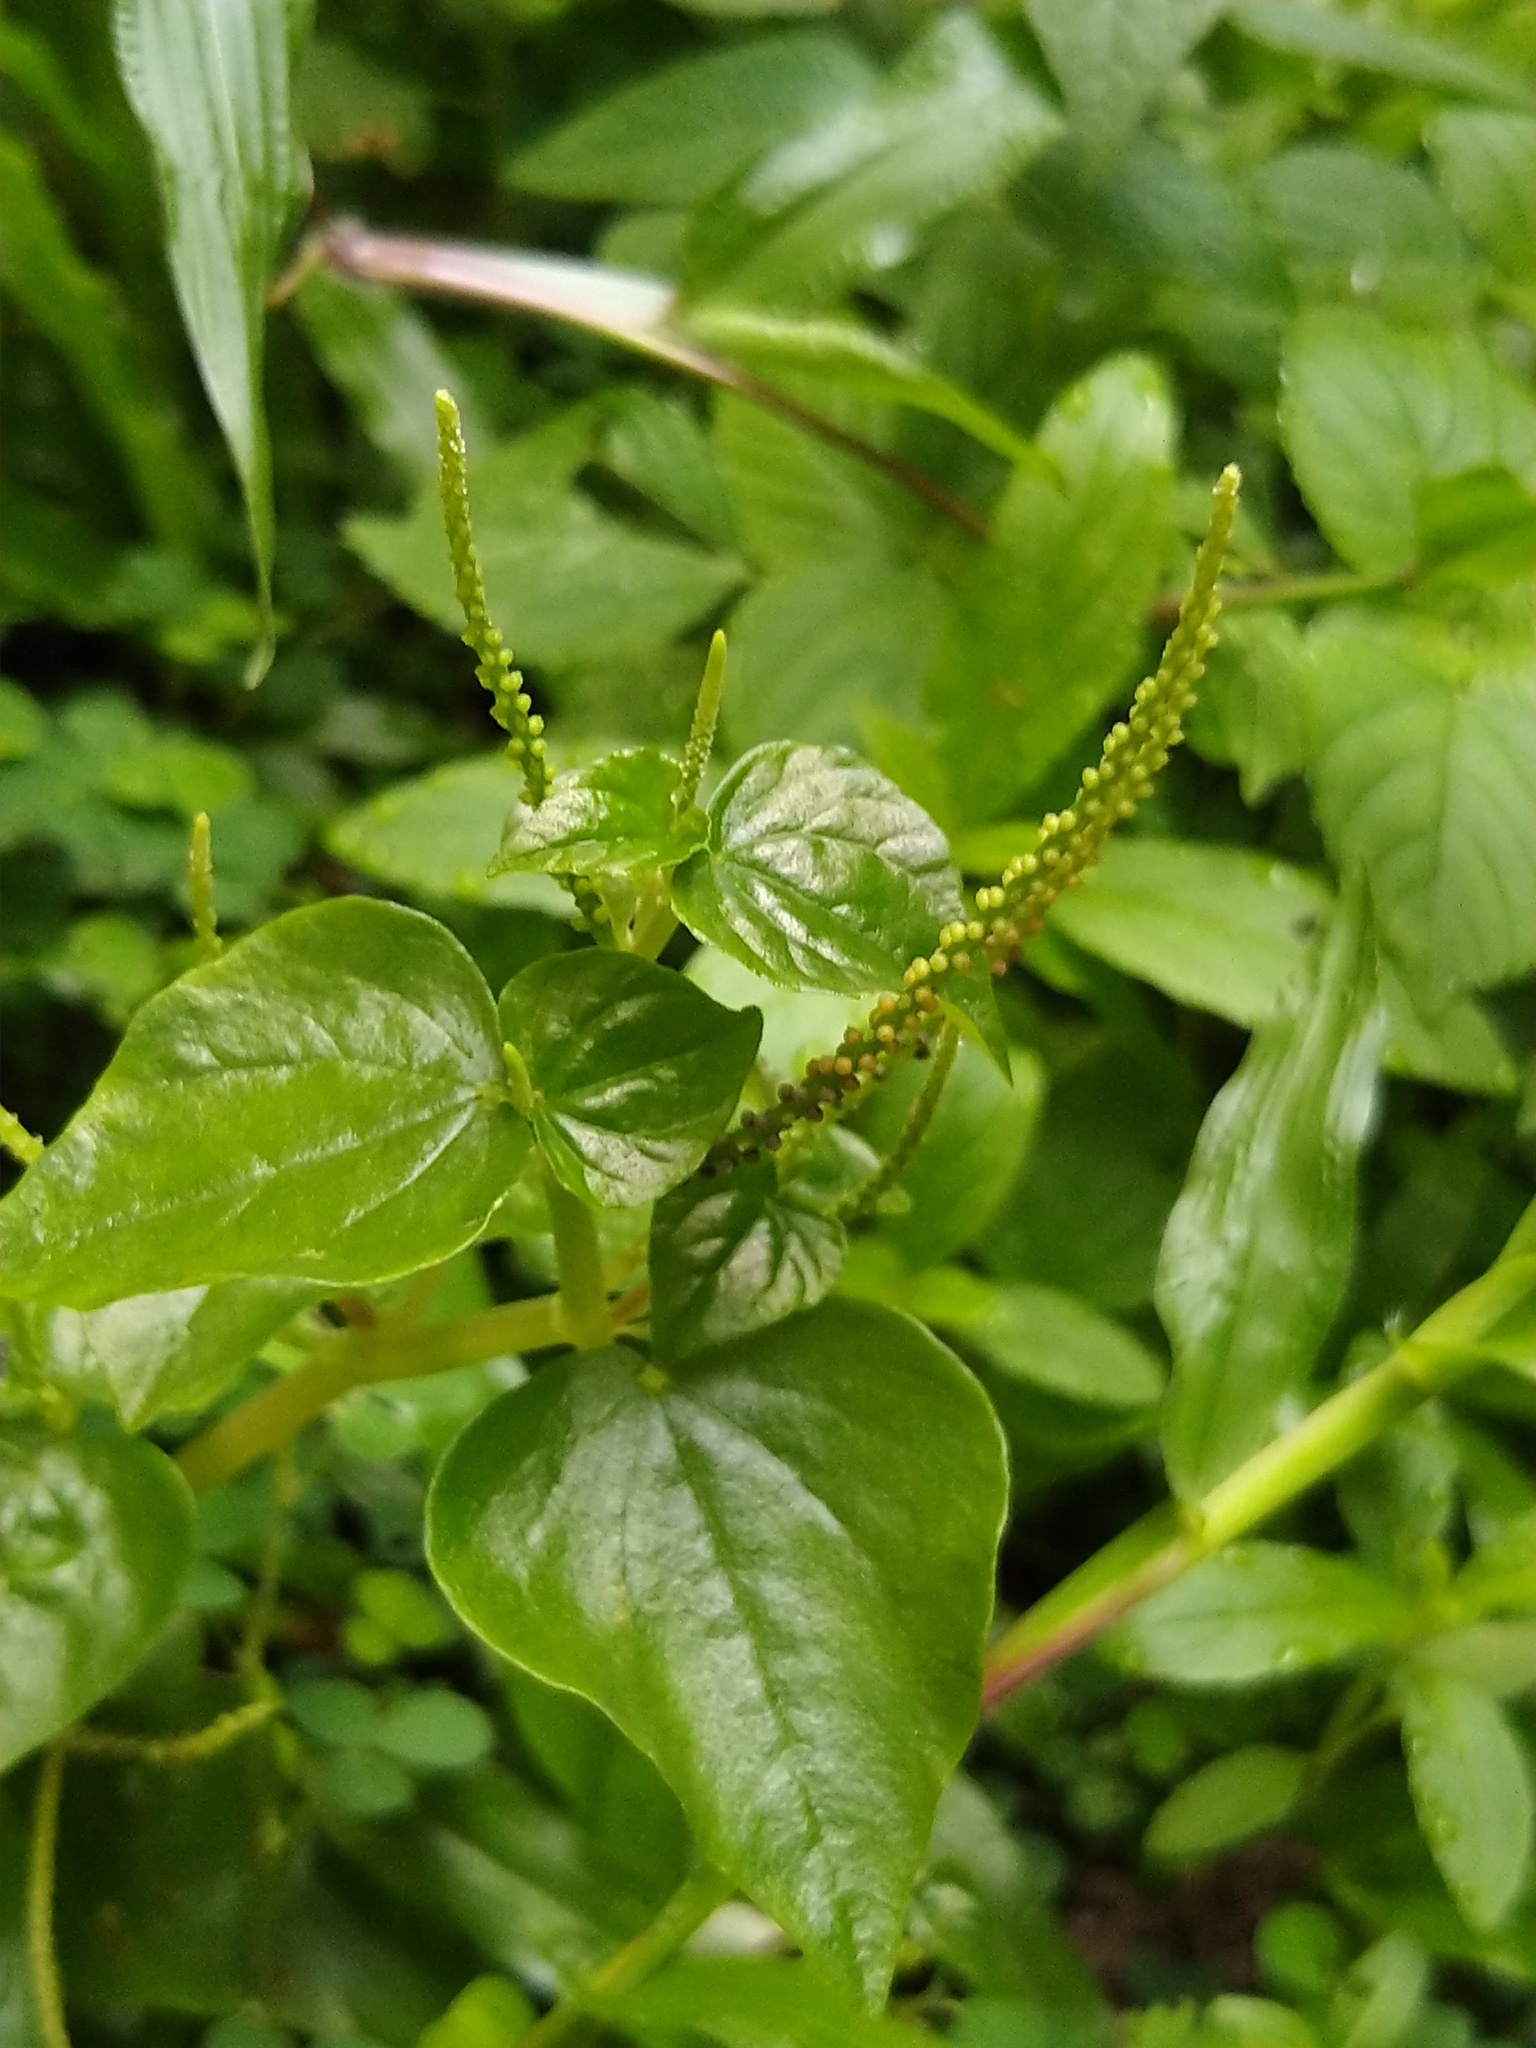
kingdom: Plantae
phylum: Tracheophyta
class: Magnoliopsida
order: Piperales
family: Piperaceae
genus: Peperomia
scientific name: Peperomia pellucida
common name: Man to man
